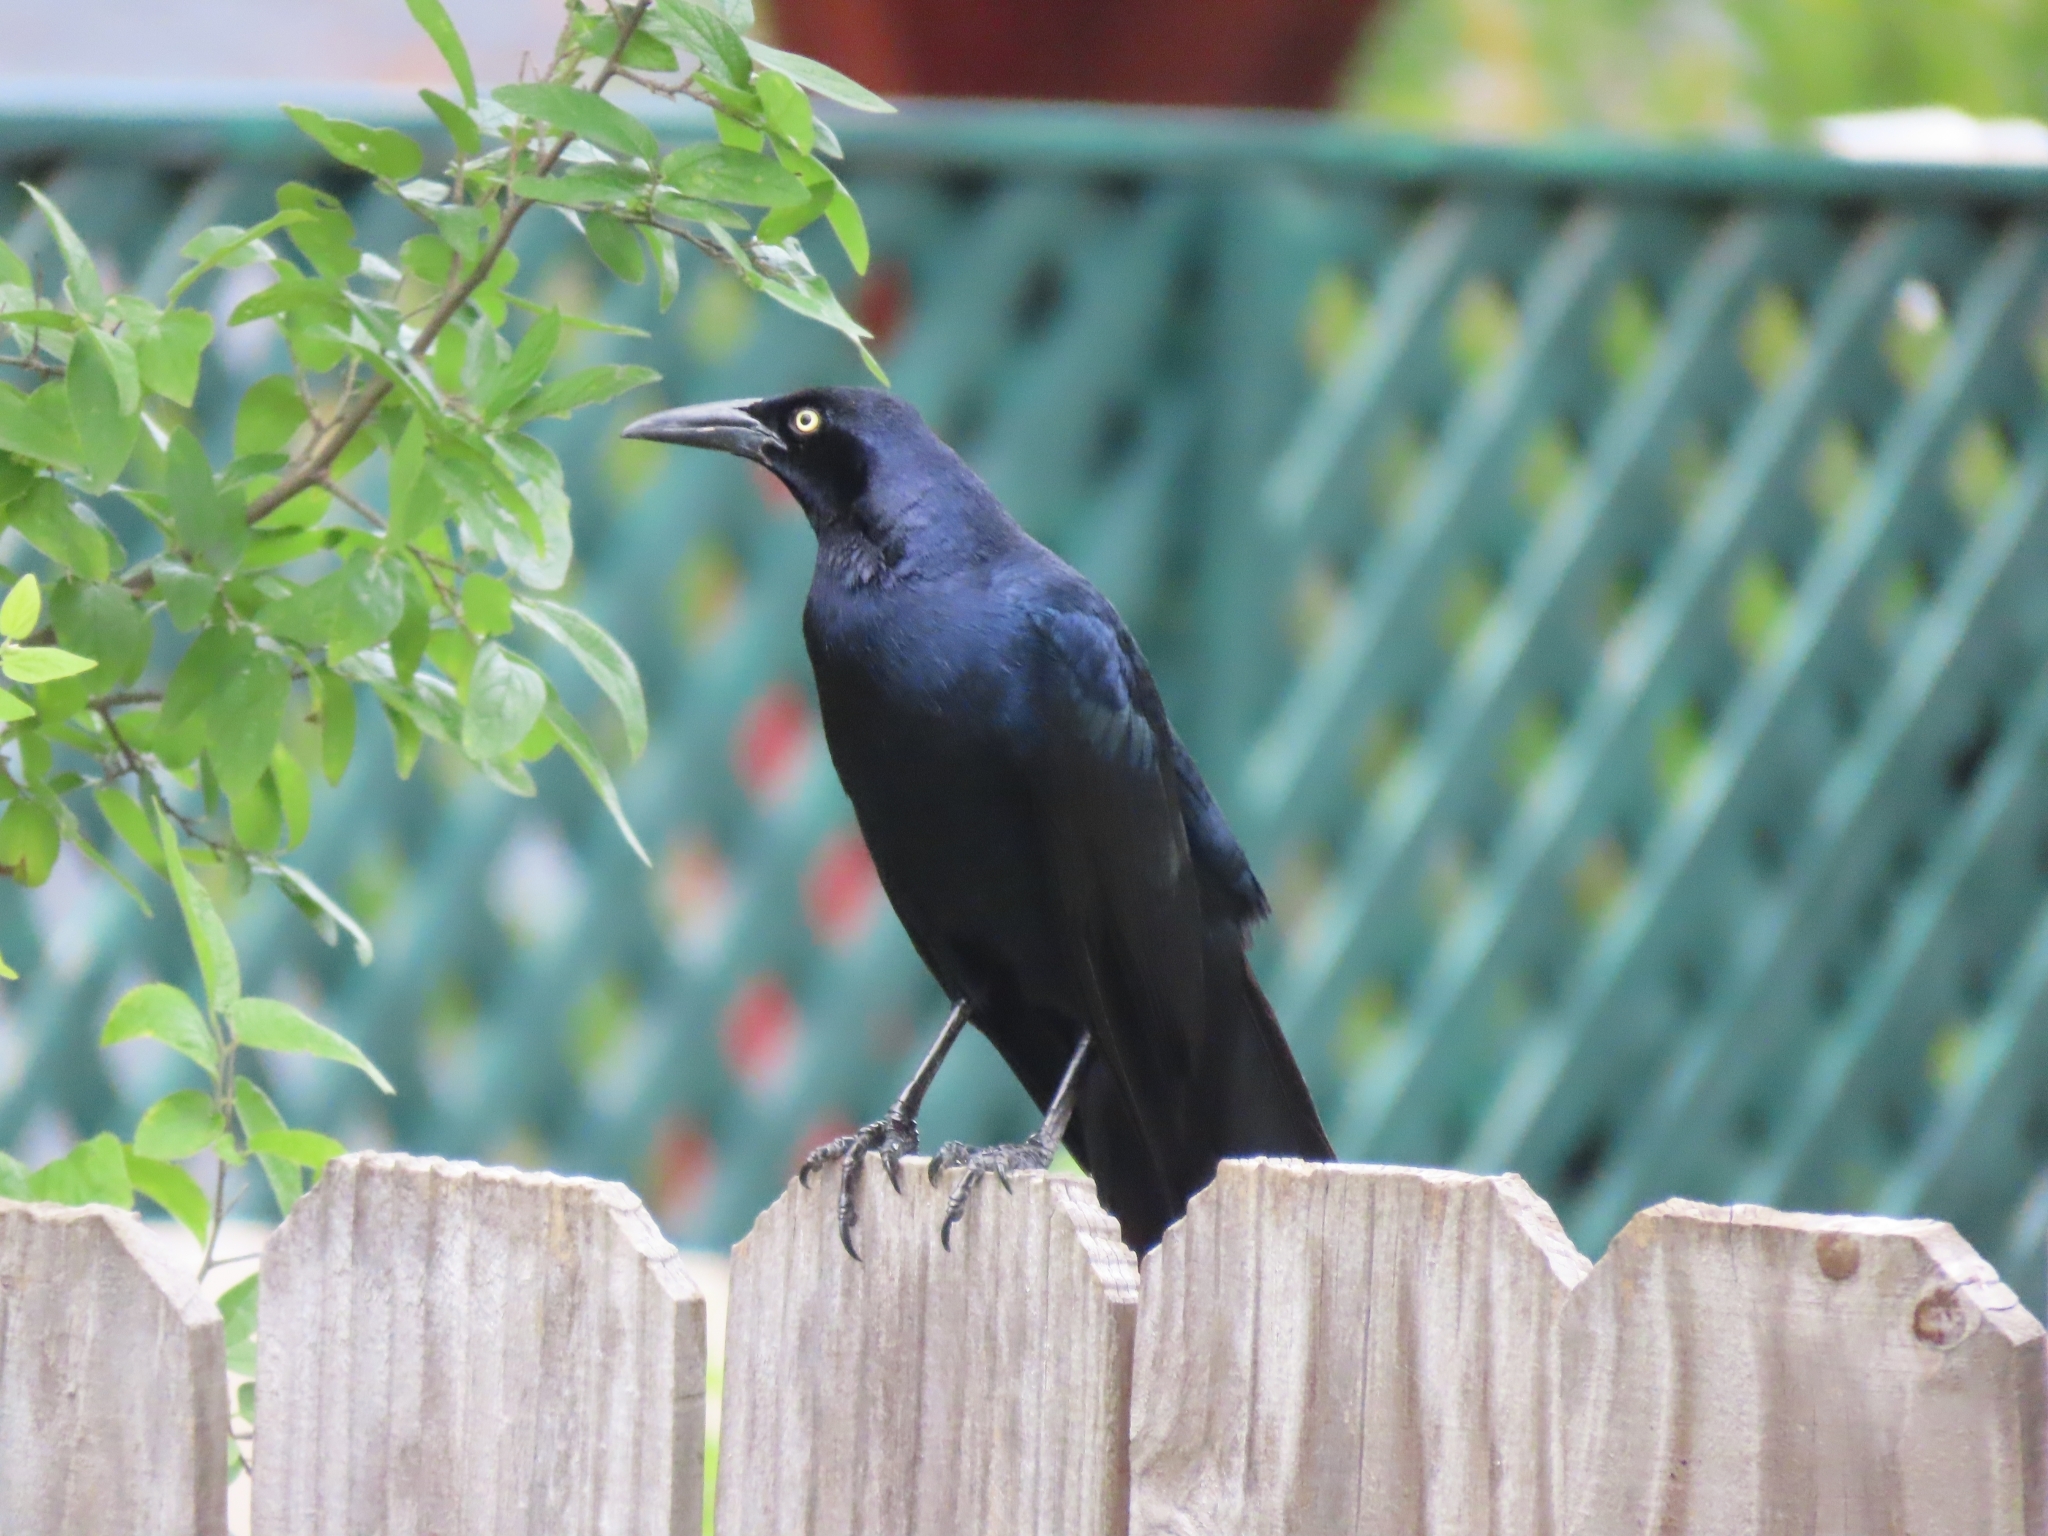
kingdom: Animalia
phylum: Chordata
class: Aves
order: Passeriformes
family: Icteridae
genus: Quiscalus
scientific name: Quiscalus mexicanus
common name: Great-tailed grackle
